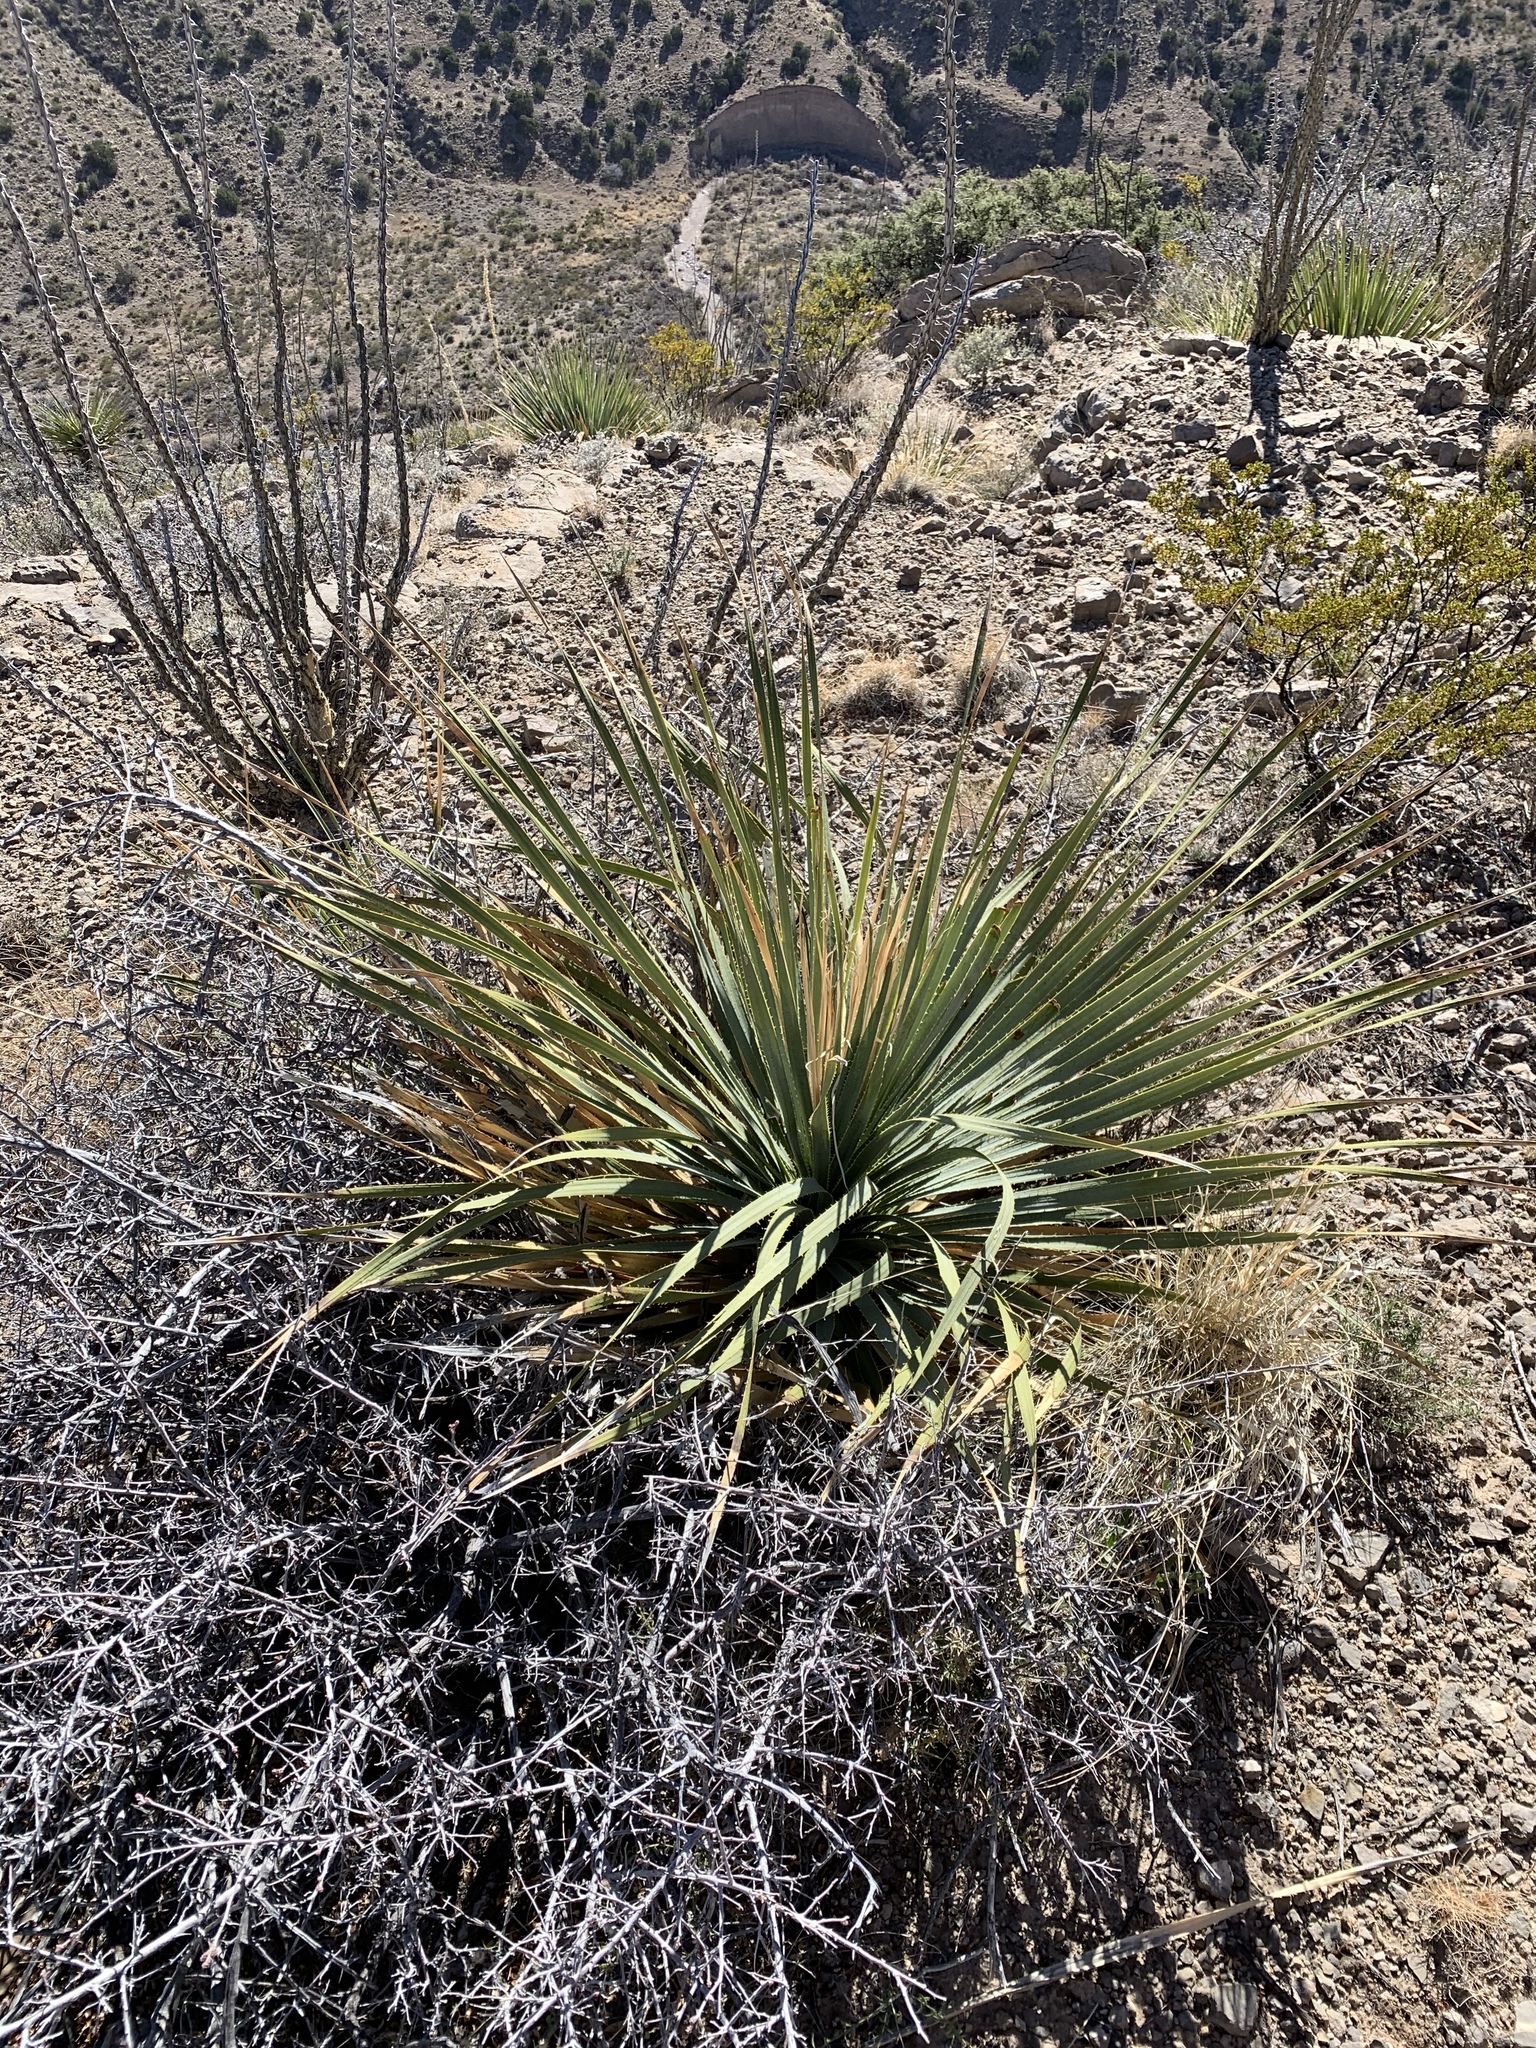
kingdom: Plantae
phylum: Tracheophyta
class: Liliopsida
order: Asparagales
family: Asparagaceae
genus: Dasylirion
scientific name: Dasylirion wheeleri
